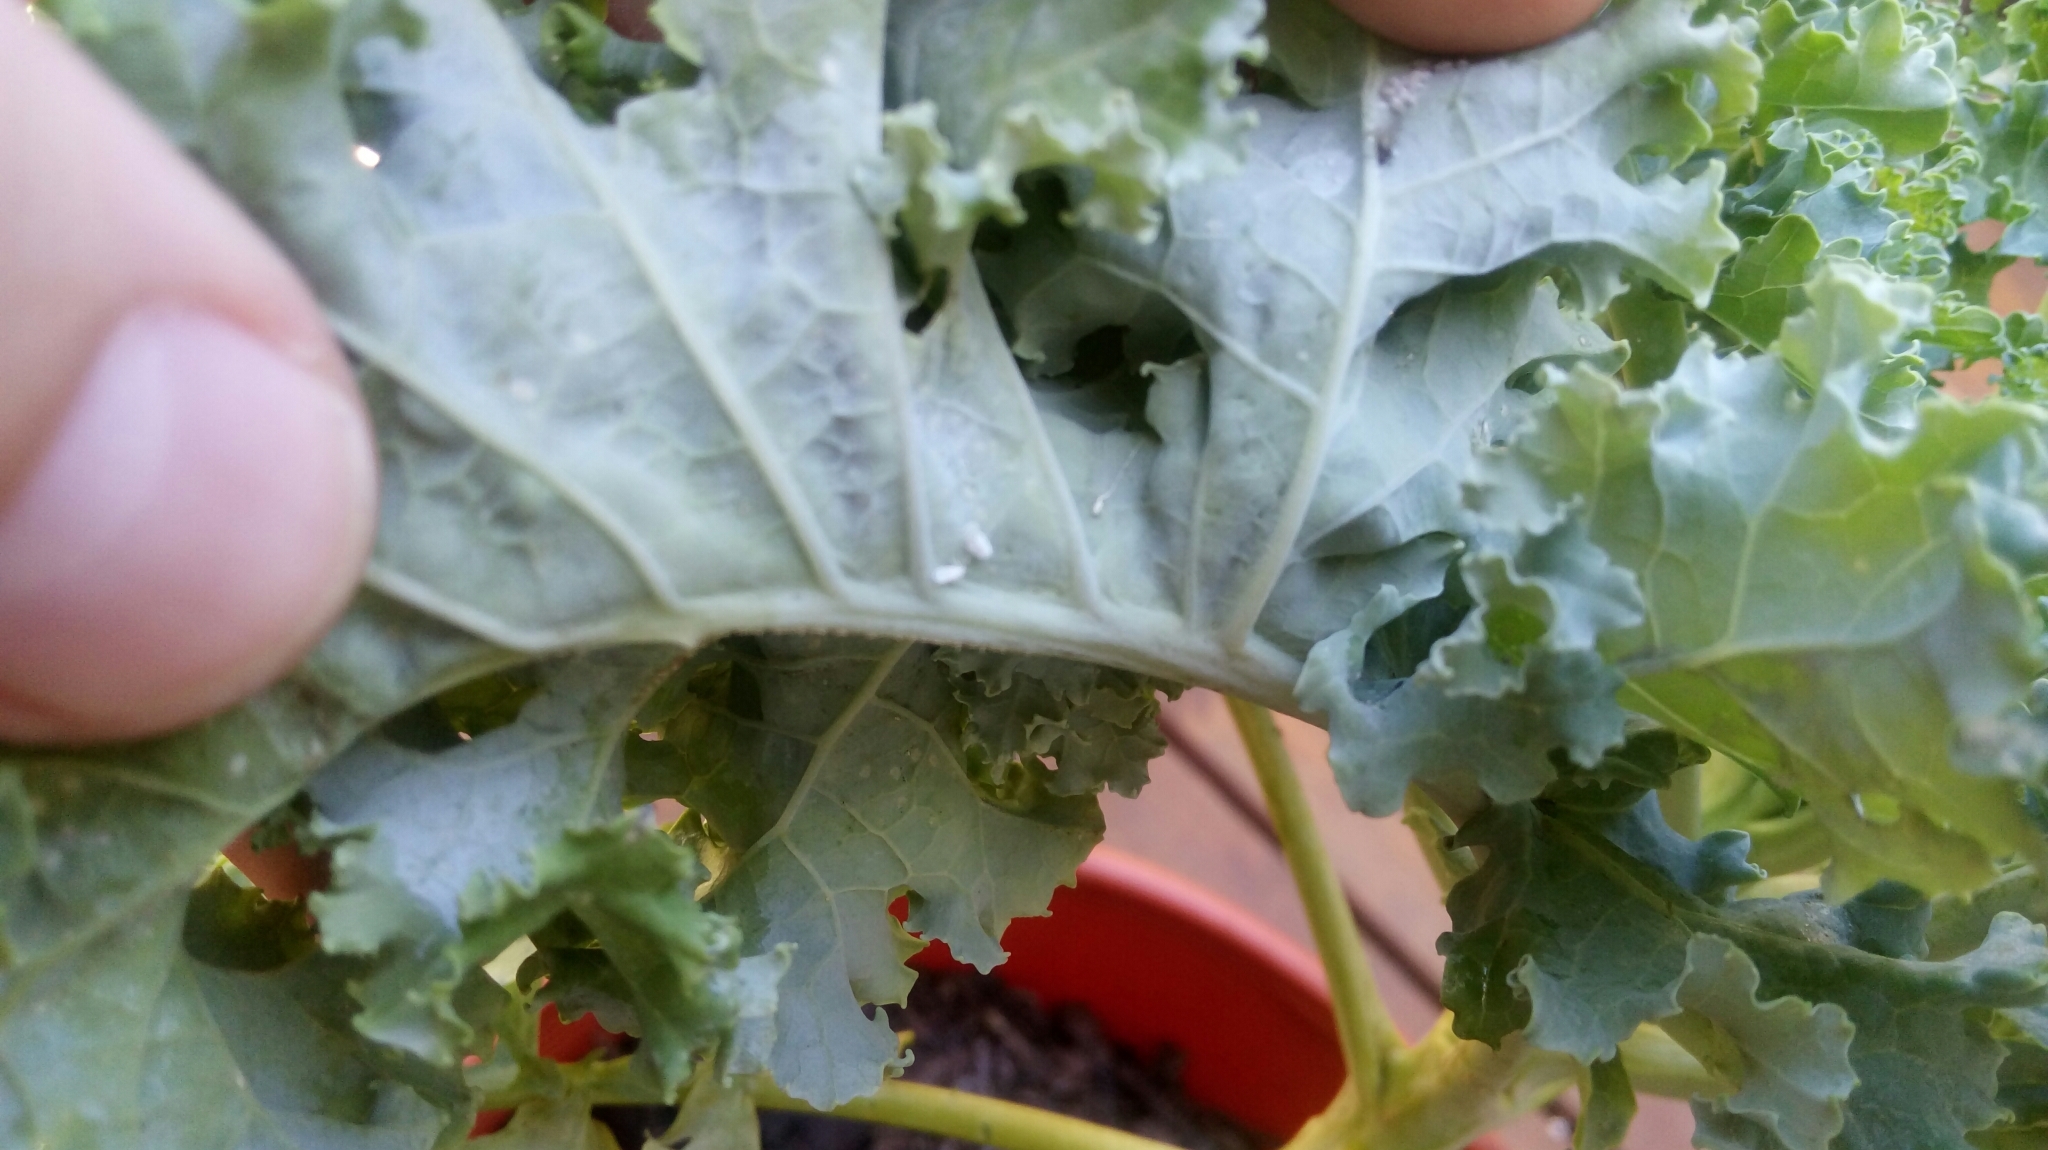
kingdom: Animalia
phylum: Arthropoda
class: Insecta
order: Hemiptera
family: Aleyrodidae
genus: Aleyrodes
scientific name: Aleyrodes proletella
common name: Cabbage whitefly
